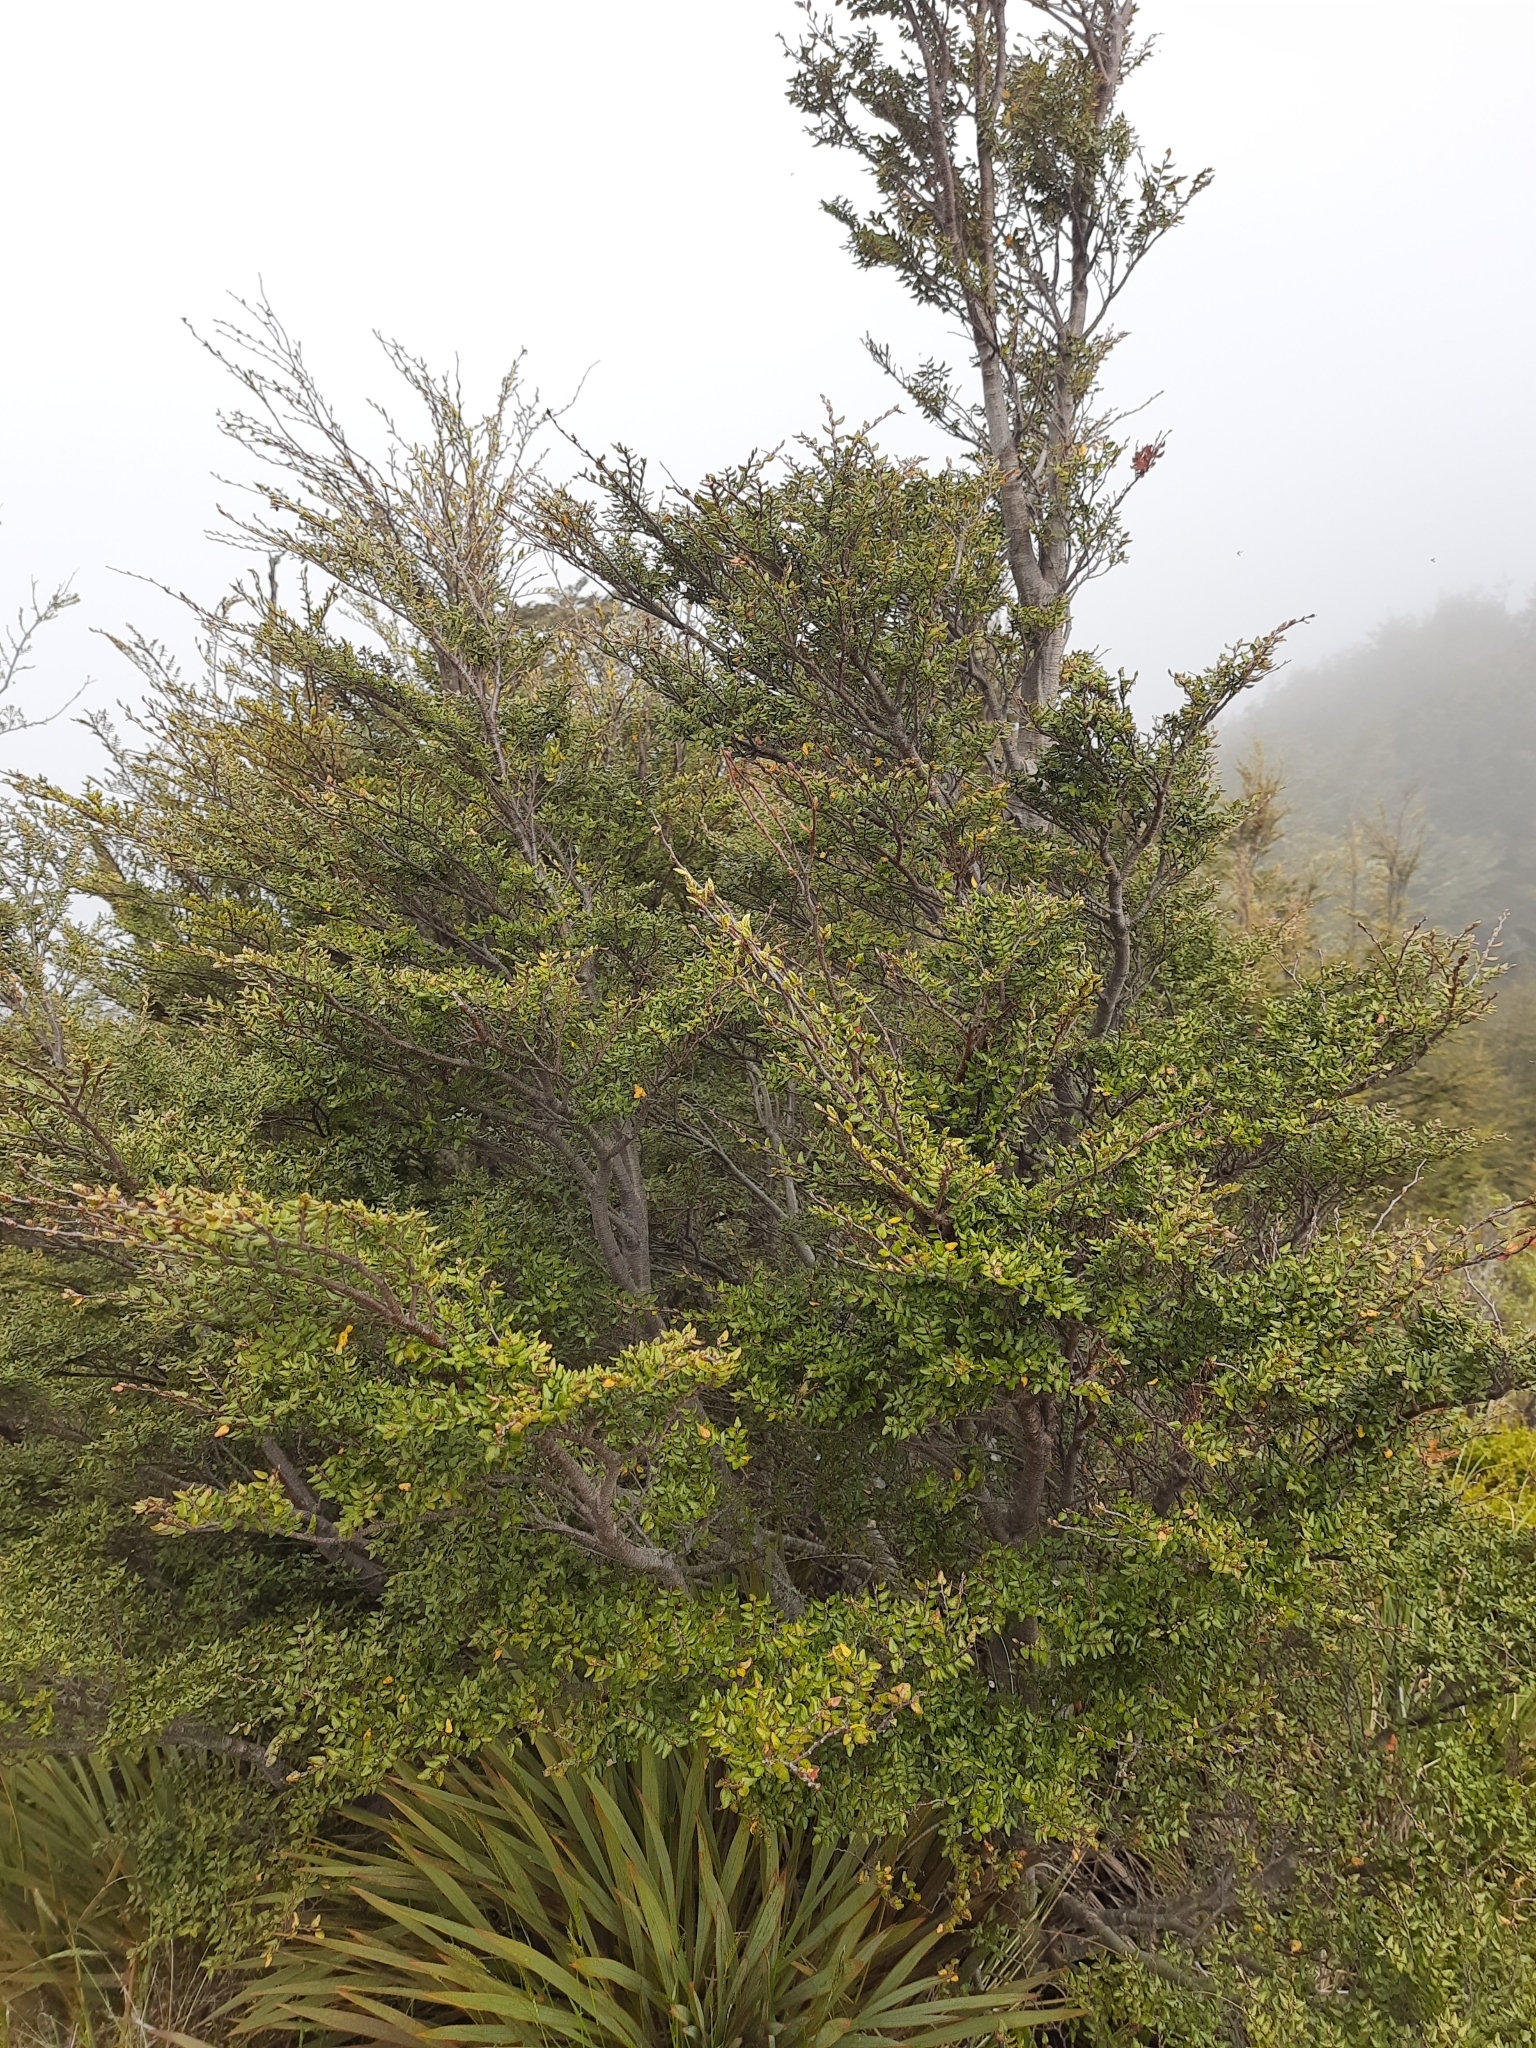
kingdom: Plantae
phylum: Tracheophyta
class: Magnoliopsida
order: Fagales
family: Nothofagaceae
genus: Nothofagus
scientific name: Nothofagus cliffortioides
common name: Mountain beech
